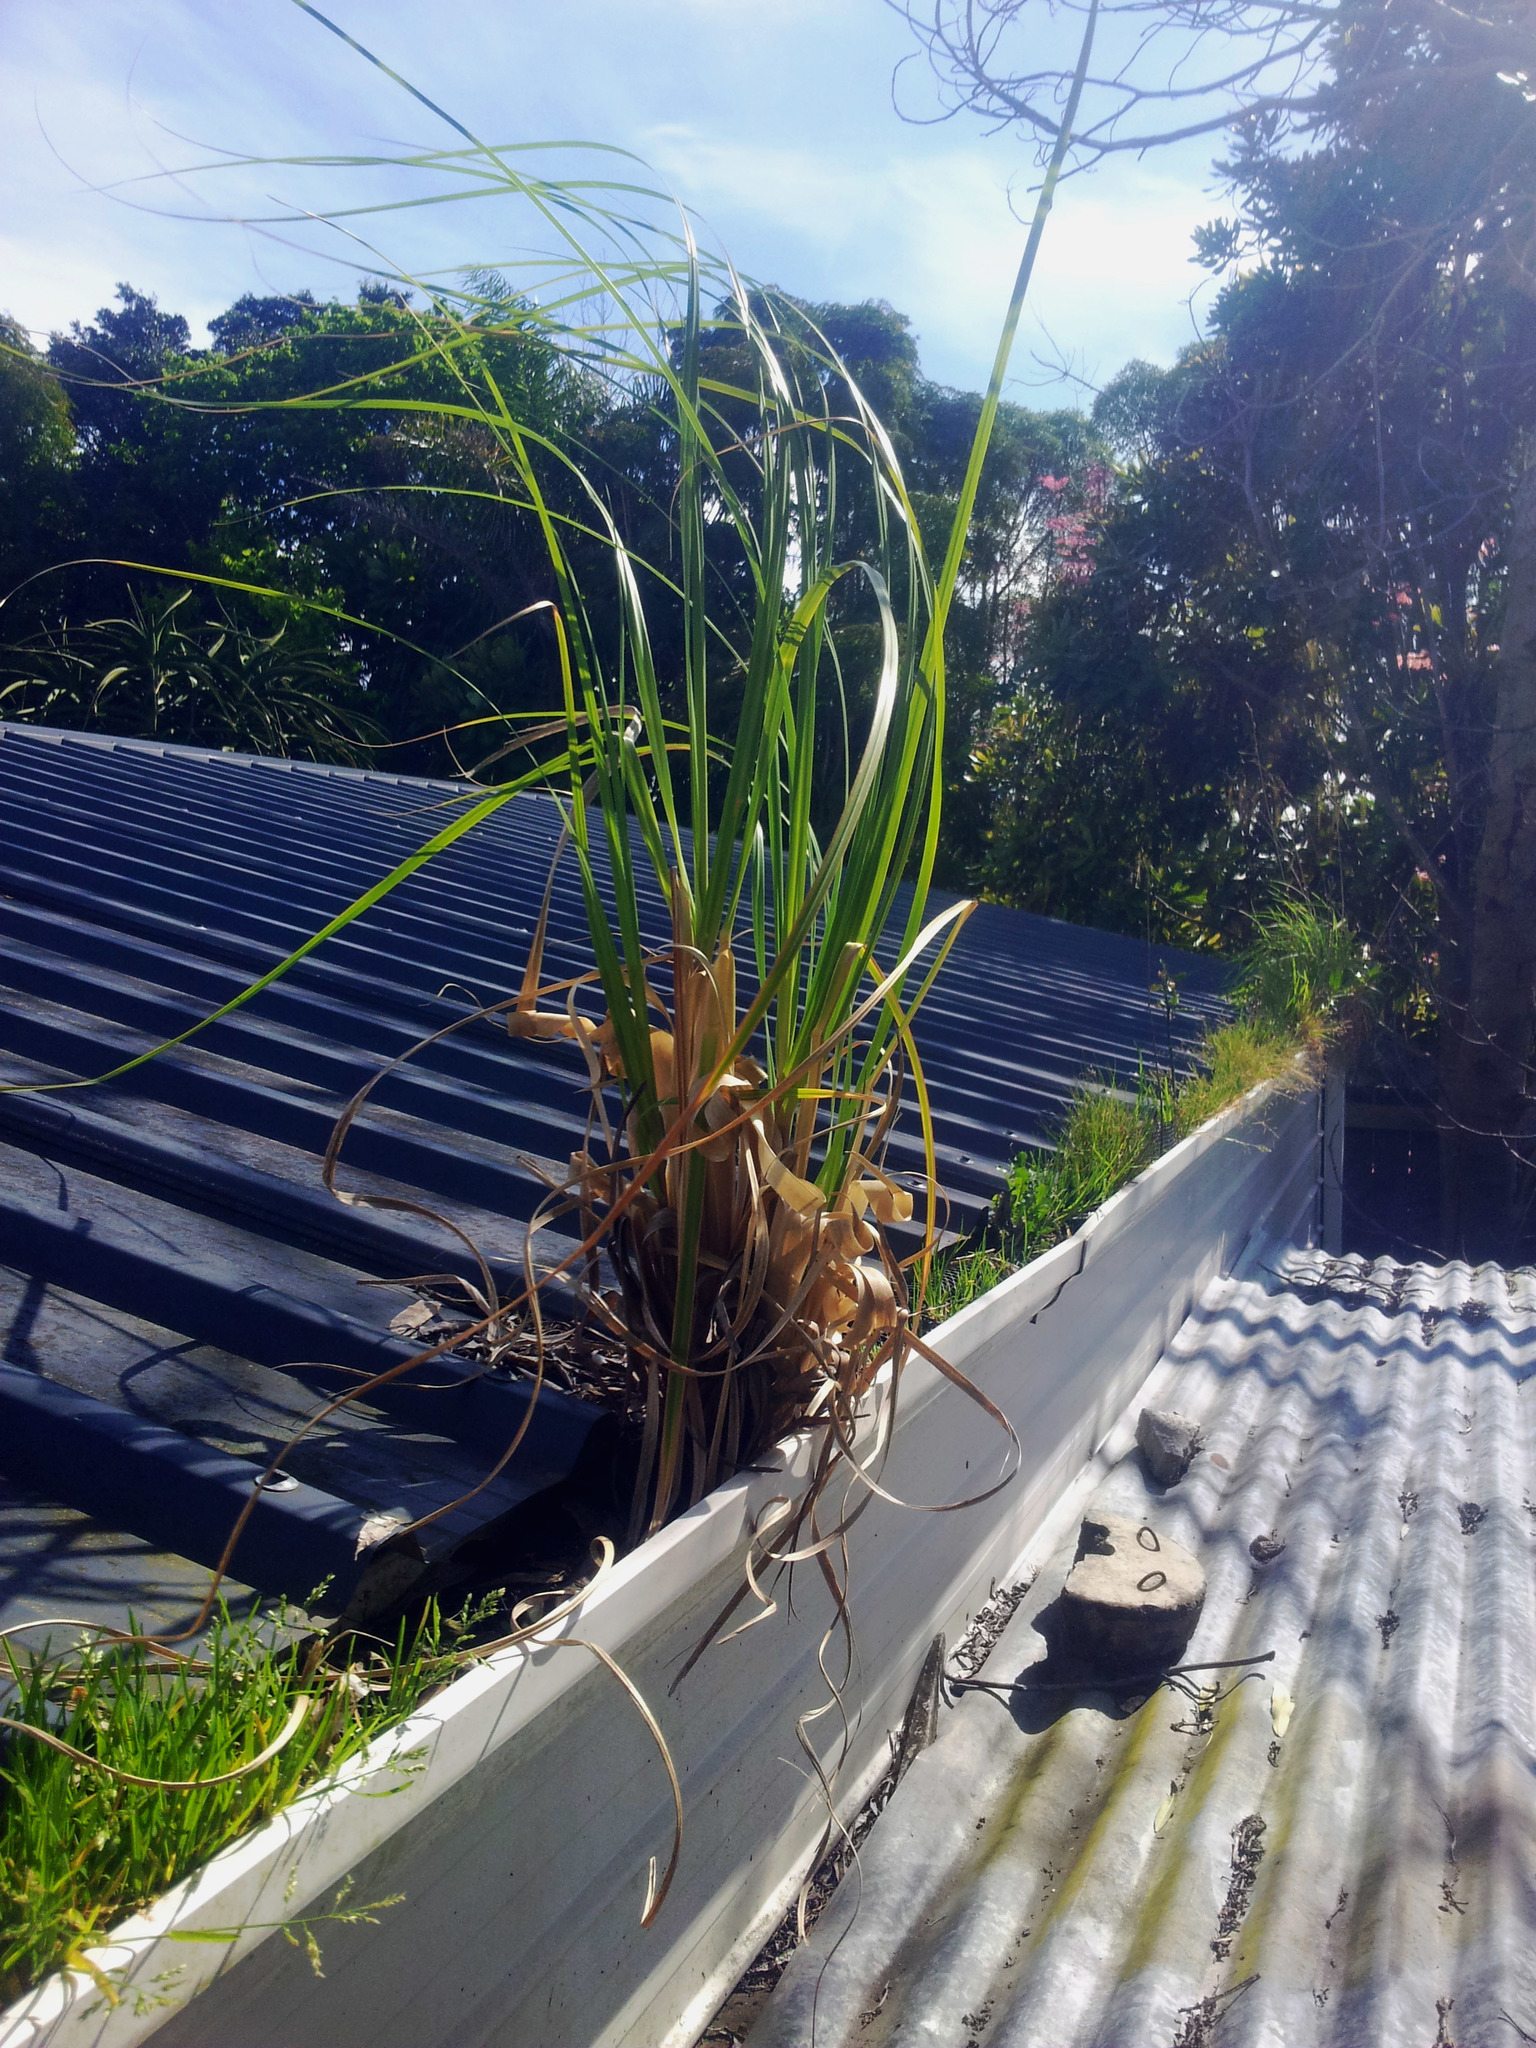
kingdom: Plantae
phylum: Tracheophyta
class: Liliopsida
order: Poales
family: Poaceae
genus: Cortaderia
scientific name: Cortaderia selloana
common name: Uruguayan pampas grass
